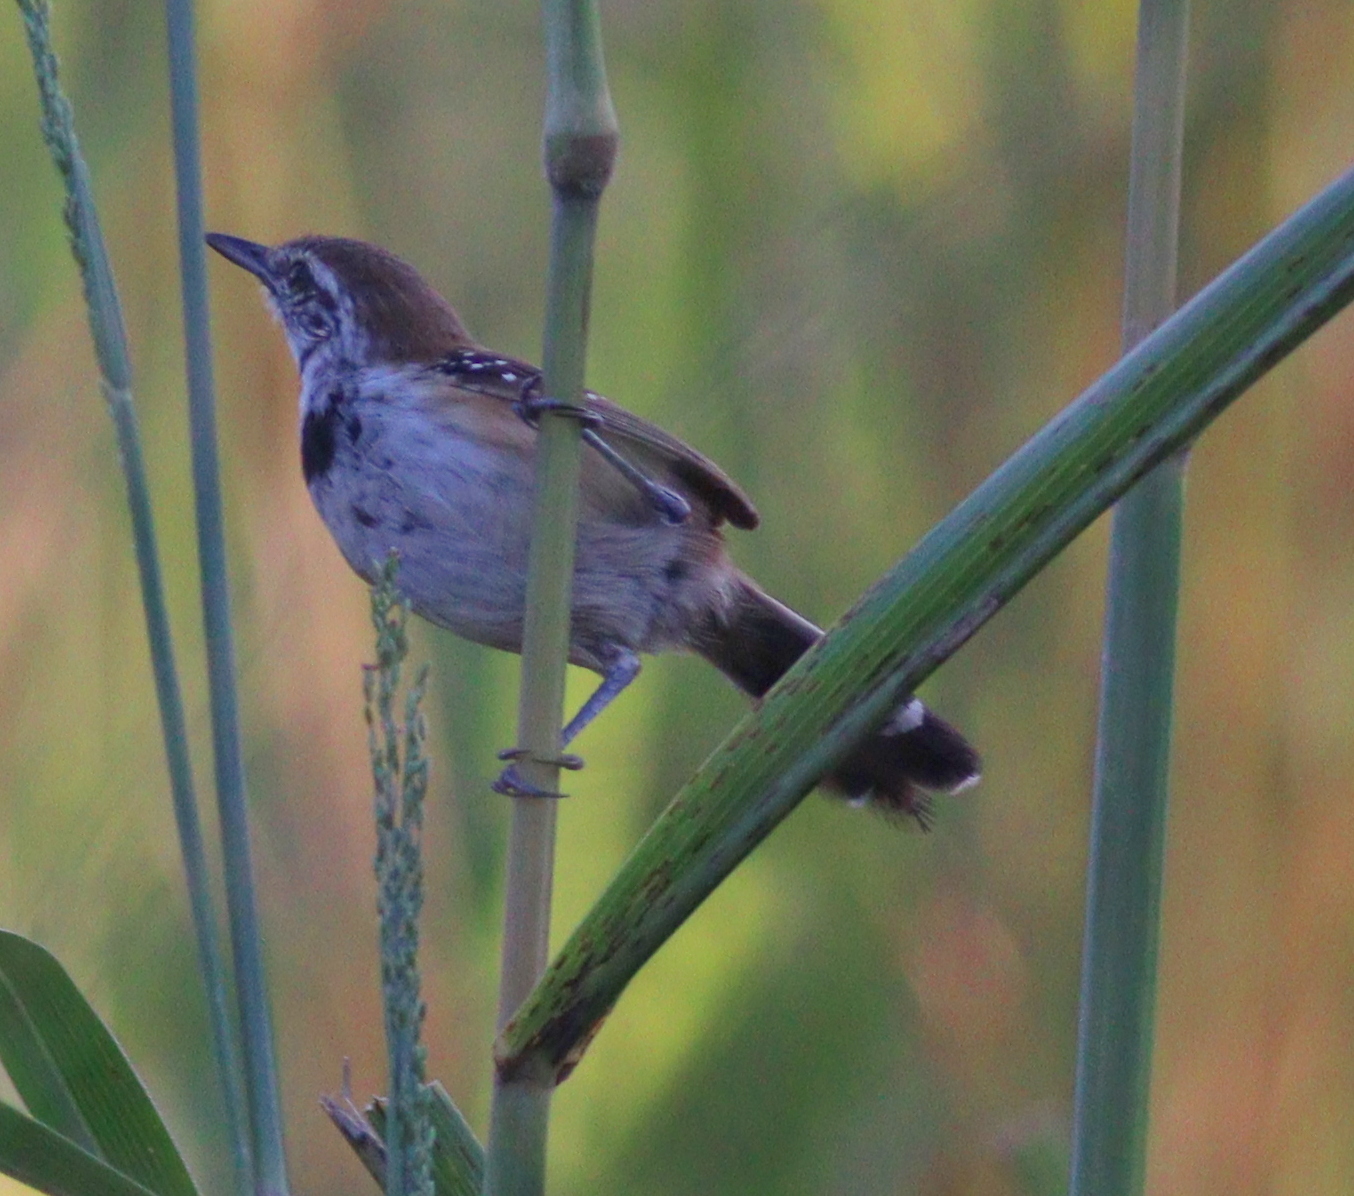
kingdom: Animalia
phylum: Chordata
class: Aves
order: Passeriformes
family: Thamnophilidae
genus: Formicivora
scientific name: Formicivora rufa
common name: Rusty-backed antwren
